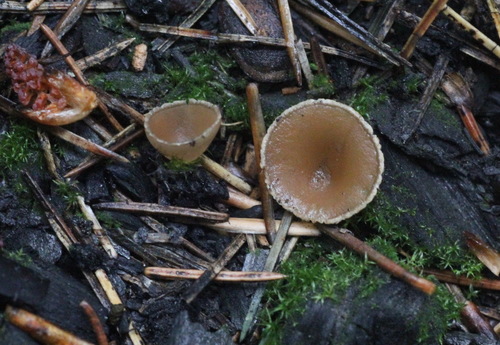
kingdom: Fungi
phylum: Ascomycota
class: Pezizomycetes
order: Pezizales
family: Pyronemataceae
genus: Geopyxis
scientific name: Geopyxis carbonaria
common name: Stalked bonfire cup
